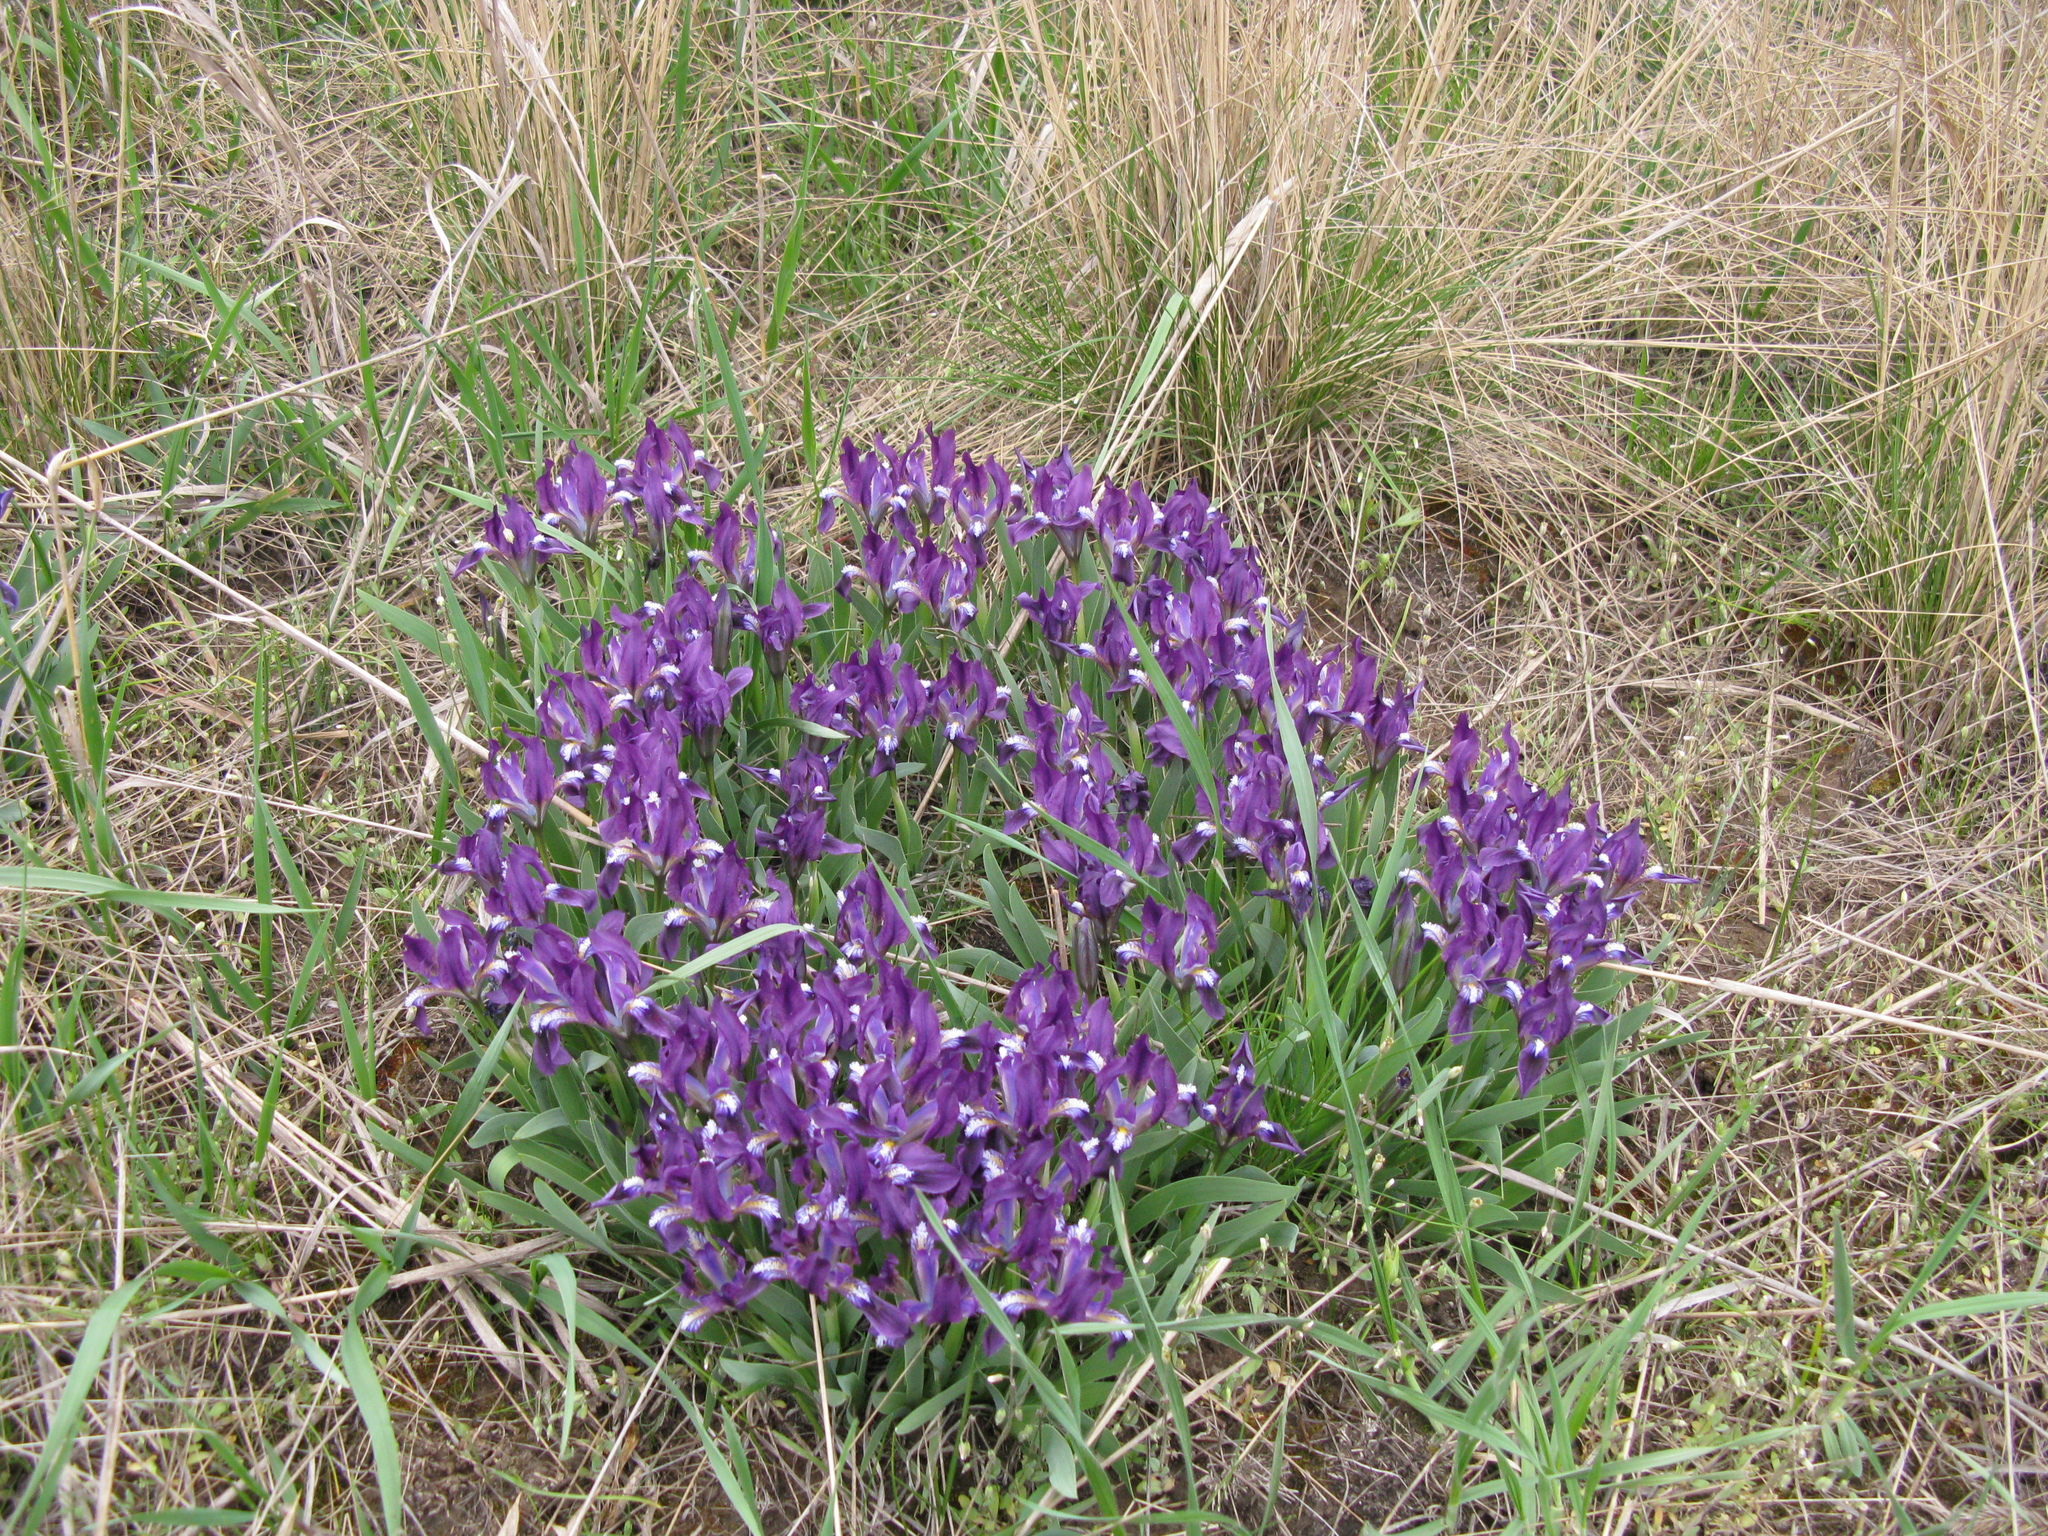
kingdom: Plantae
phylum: Tracheophyta
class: Liliopsida
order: Asparagales
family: Iridaceae
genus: Iris
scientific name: Iris pumila
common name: Dwarf iris
